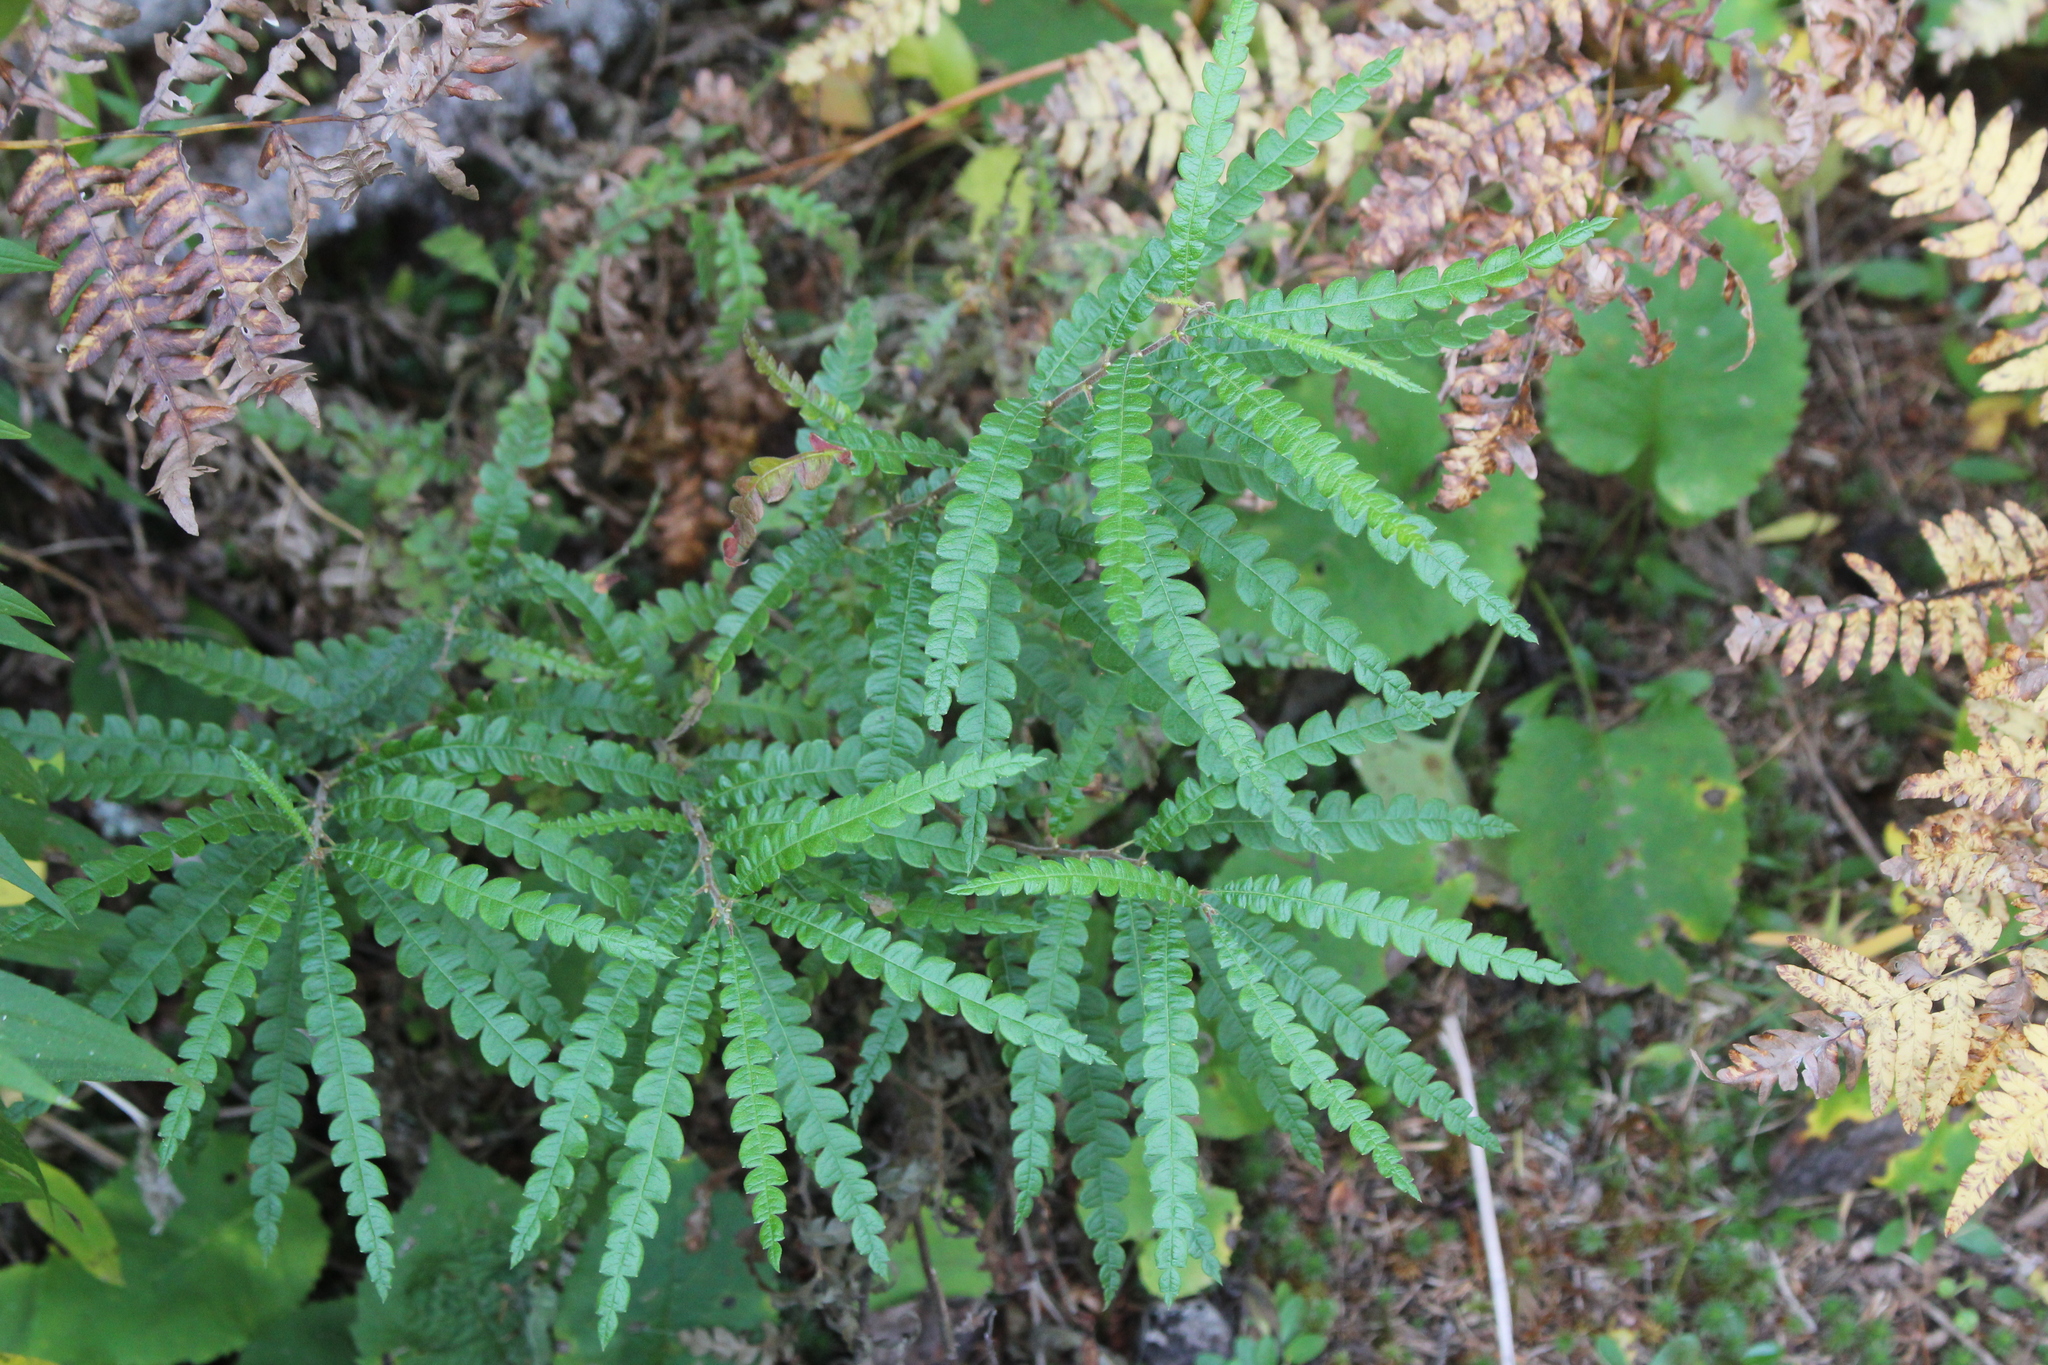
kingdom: Plantae
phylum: Tracheophyta
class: Magnoliopsida
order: Fagales
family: Myricaceae
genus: Comptonia
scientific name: Comptonia peregrina
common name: Sweet-fern
